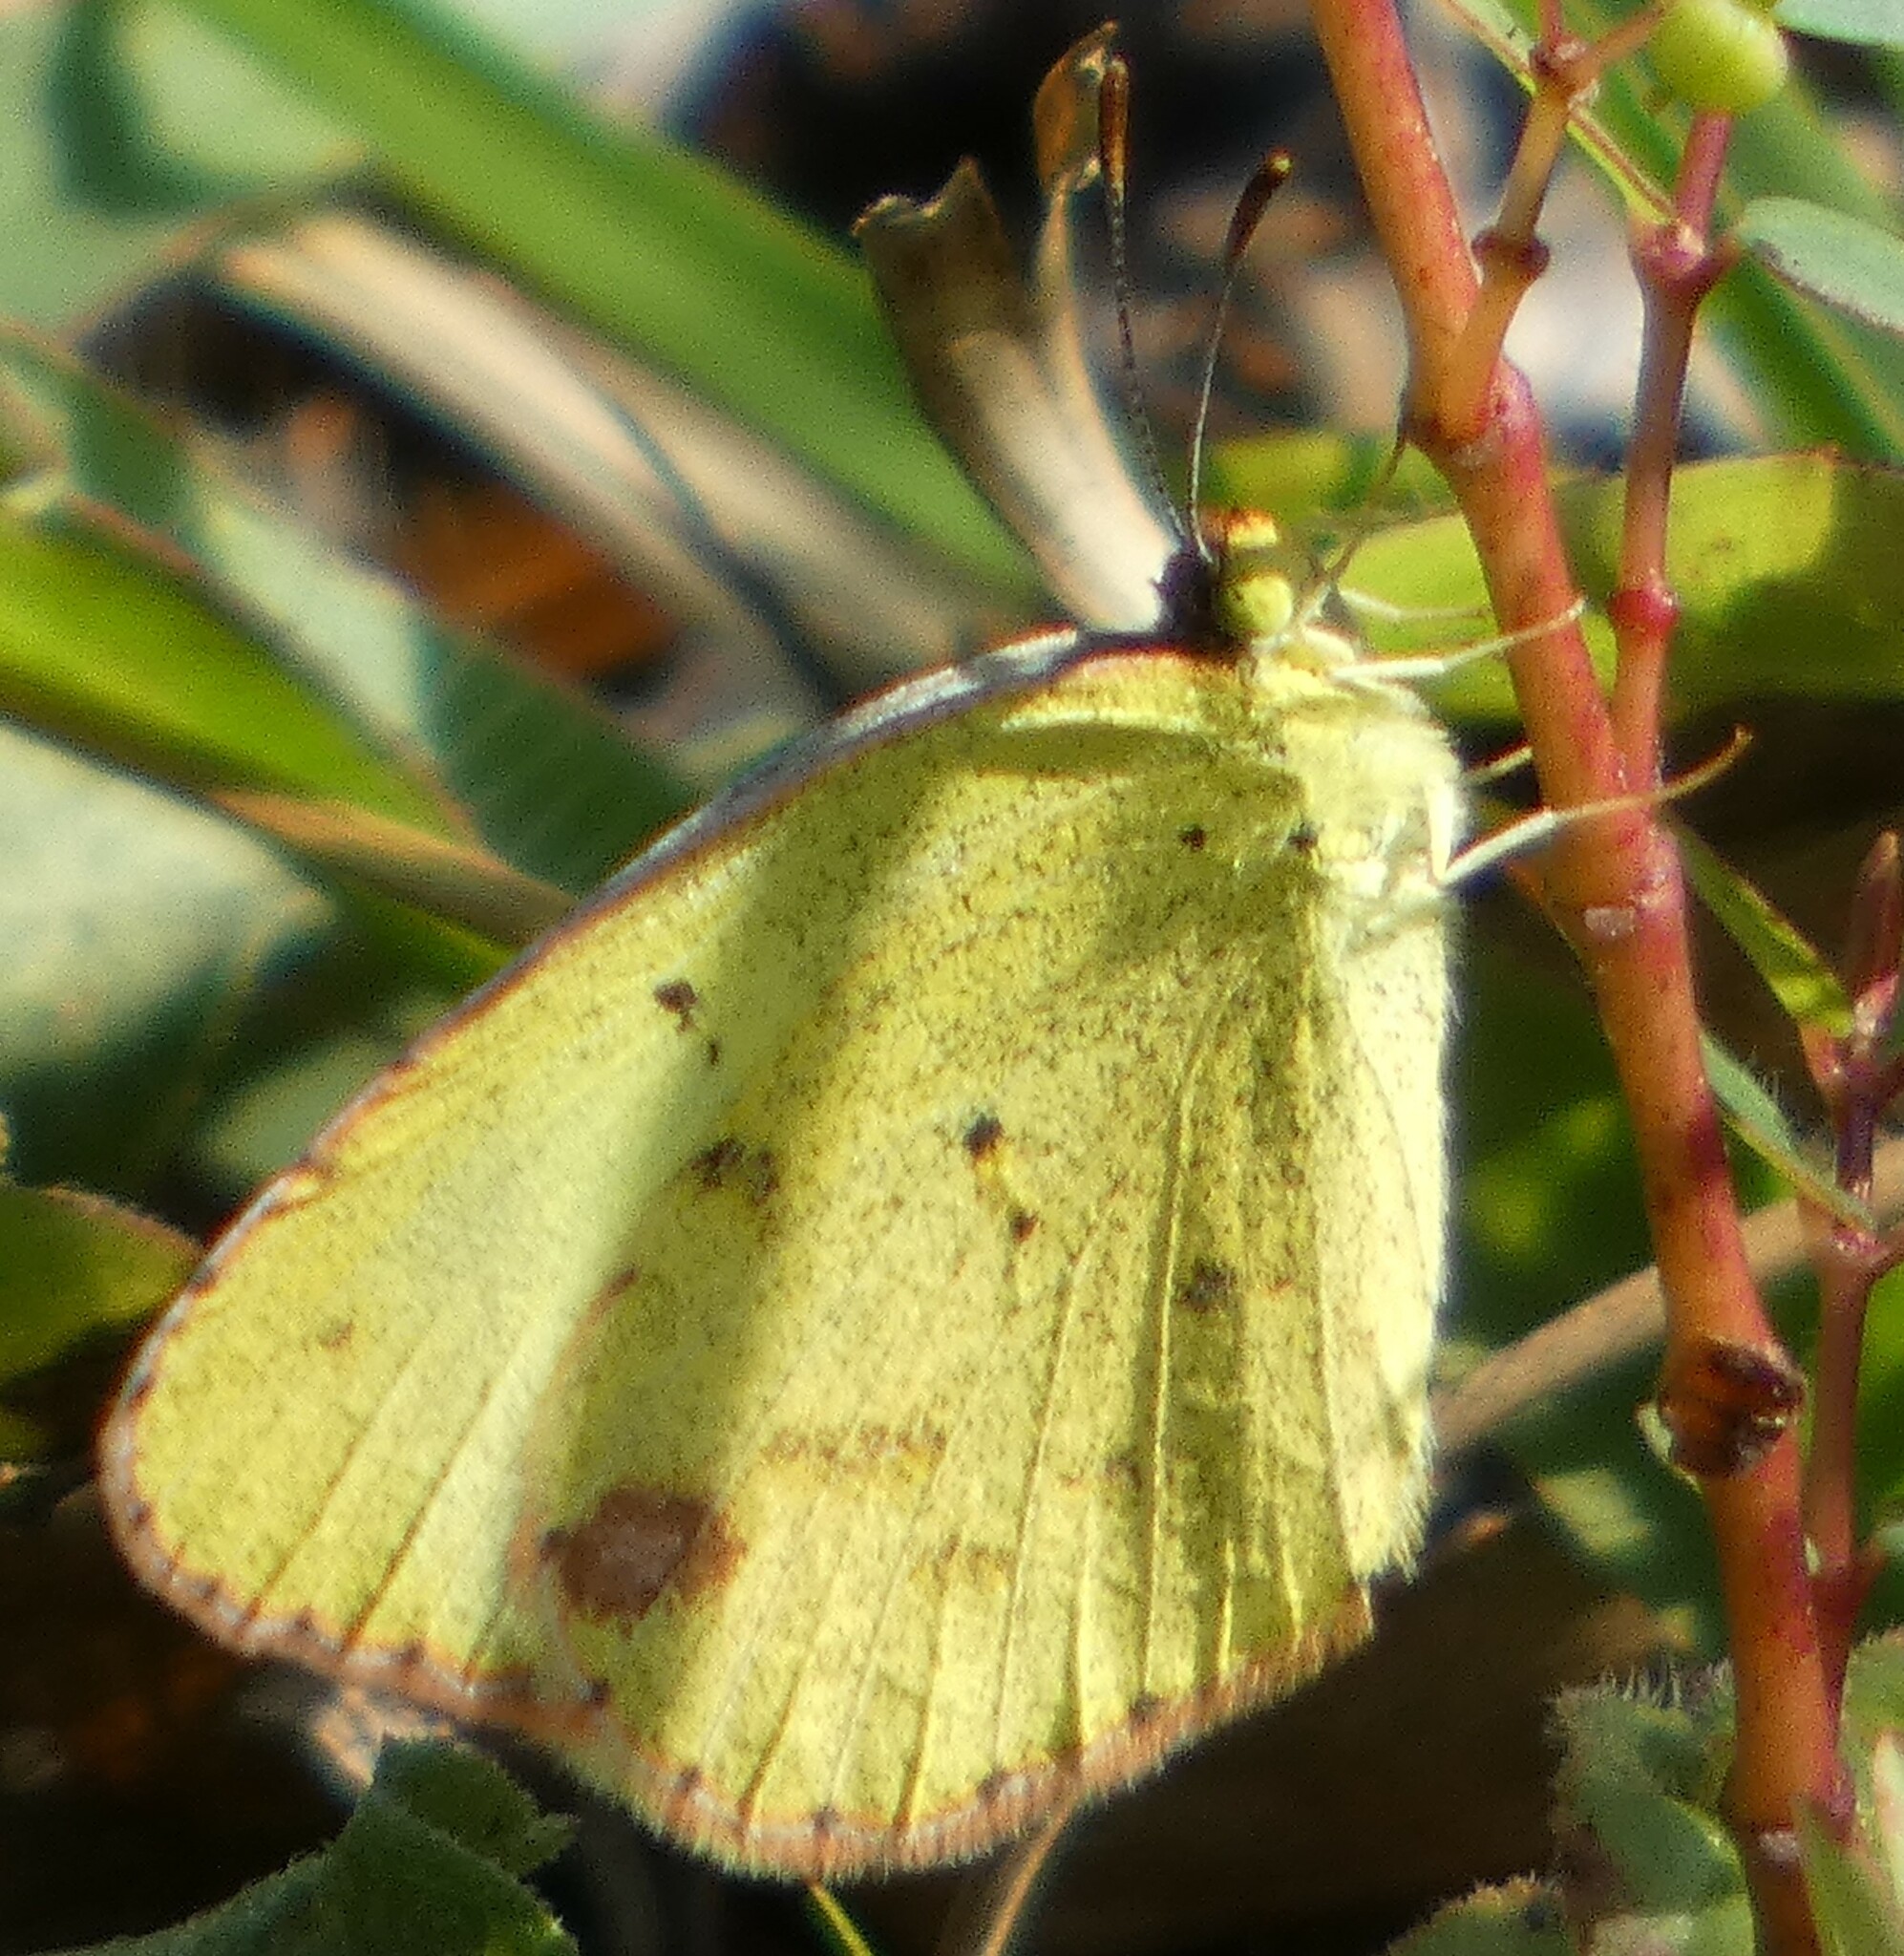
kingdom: Animalia
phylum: Arthropoda
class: Insecta
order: Lepidoptera
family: Pieridae
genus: Pyrisitia
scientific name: Pyrisitia lisa
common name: Little yellow
